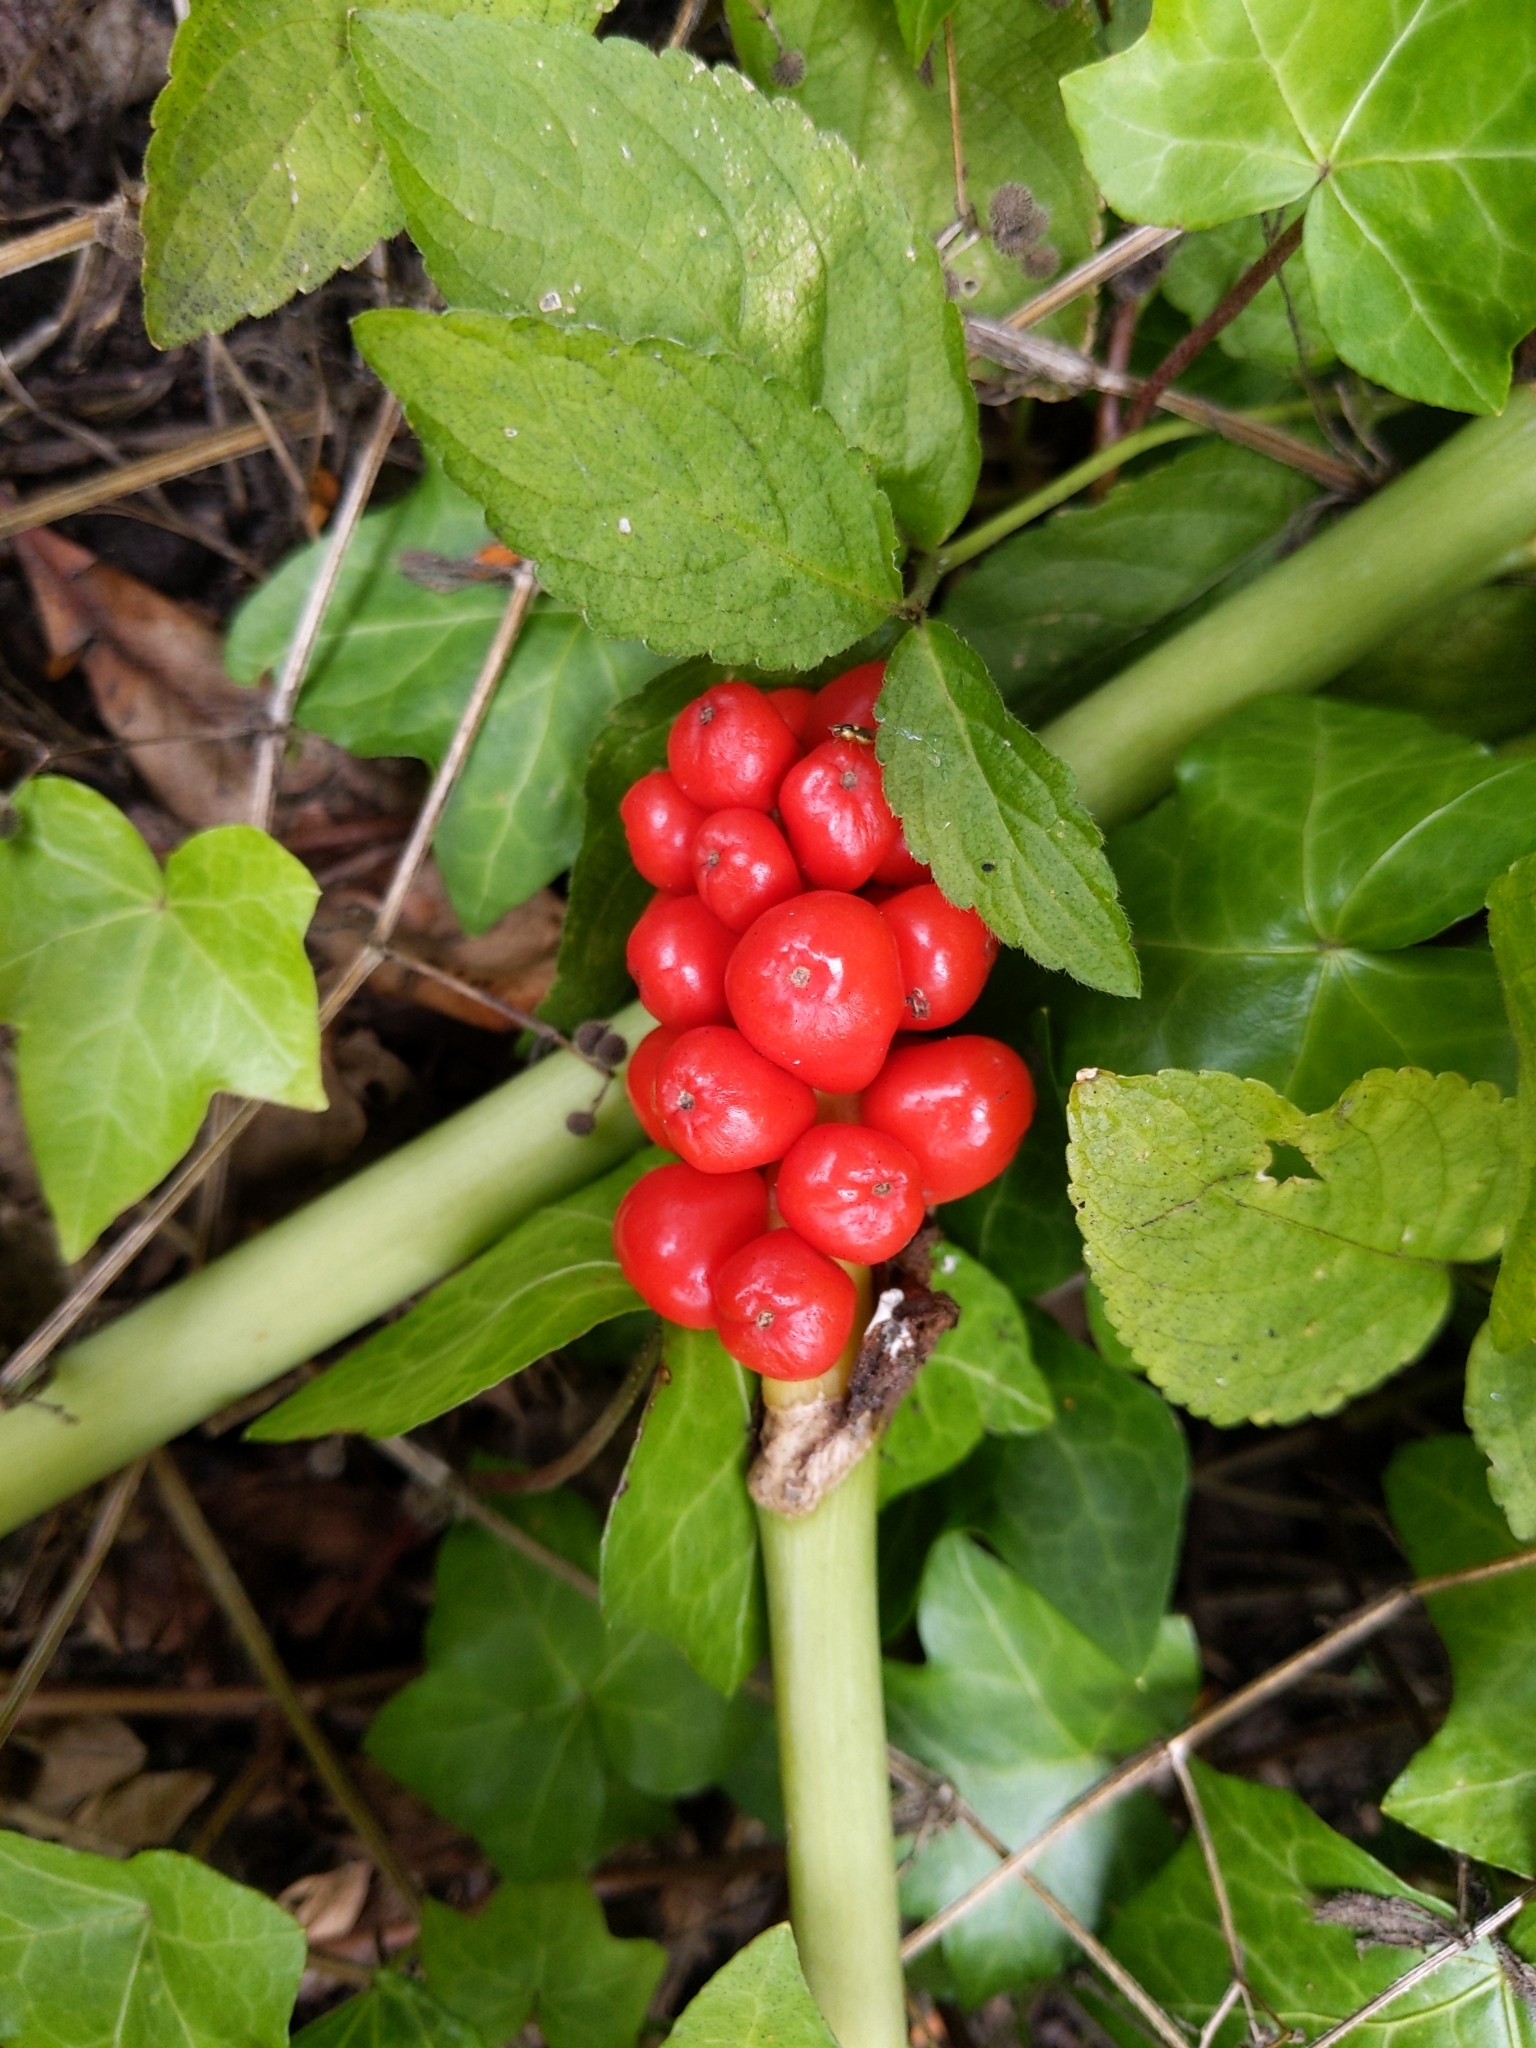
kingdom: Plantae
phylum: Tracheophyta
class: Liliopsida
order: Alismatales
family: Araceae
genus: Arum
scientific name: Arum maculatum
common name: Lords-and-ladies
